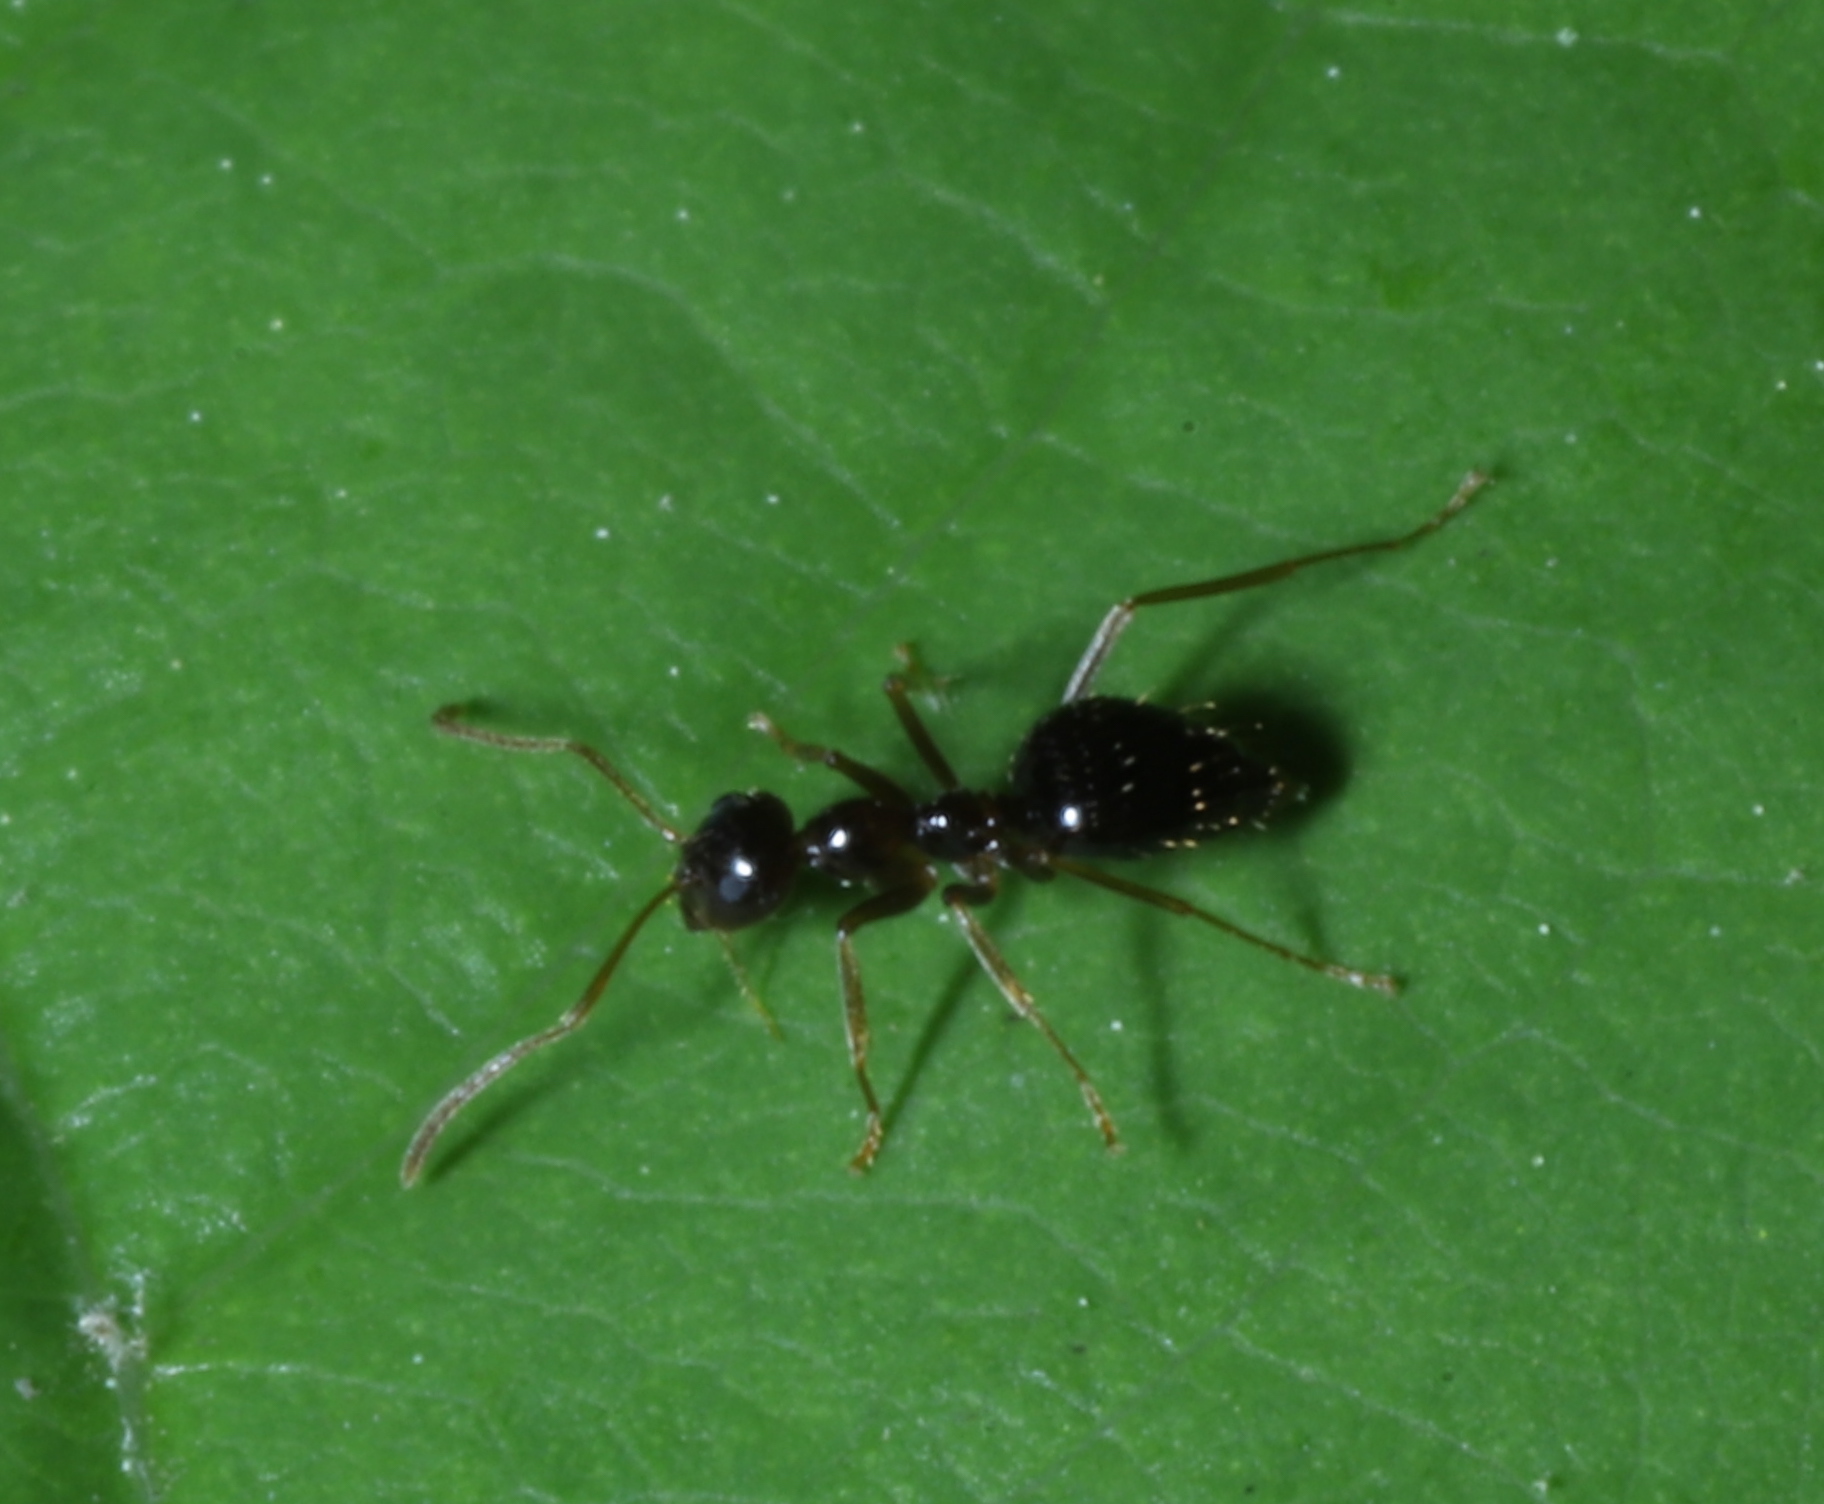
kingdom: Animalia
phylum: Arthropoda
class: Insecta
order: Hymenoptera
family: Formicidae
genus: Prenolepis
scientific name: Prenolepis imparis
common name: Small honey ant
